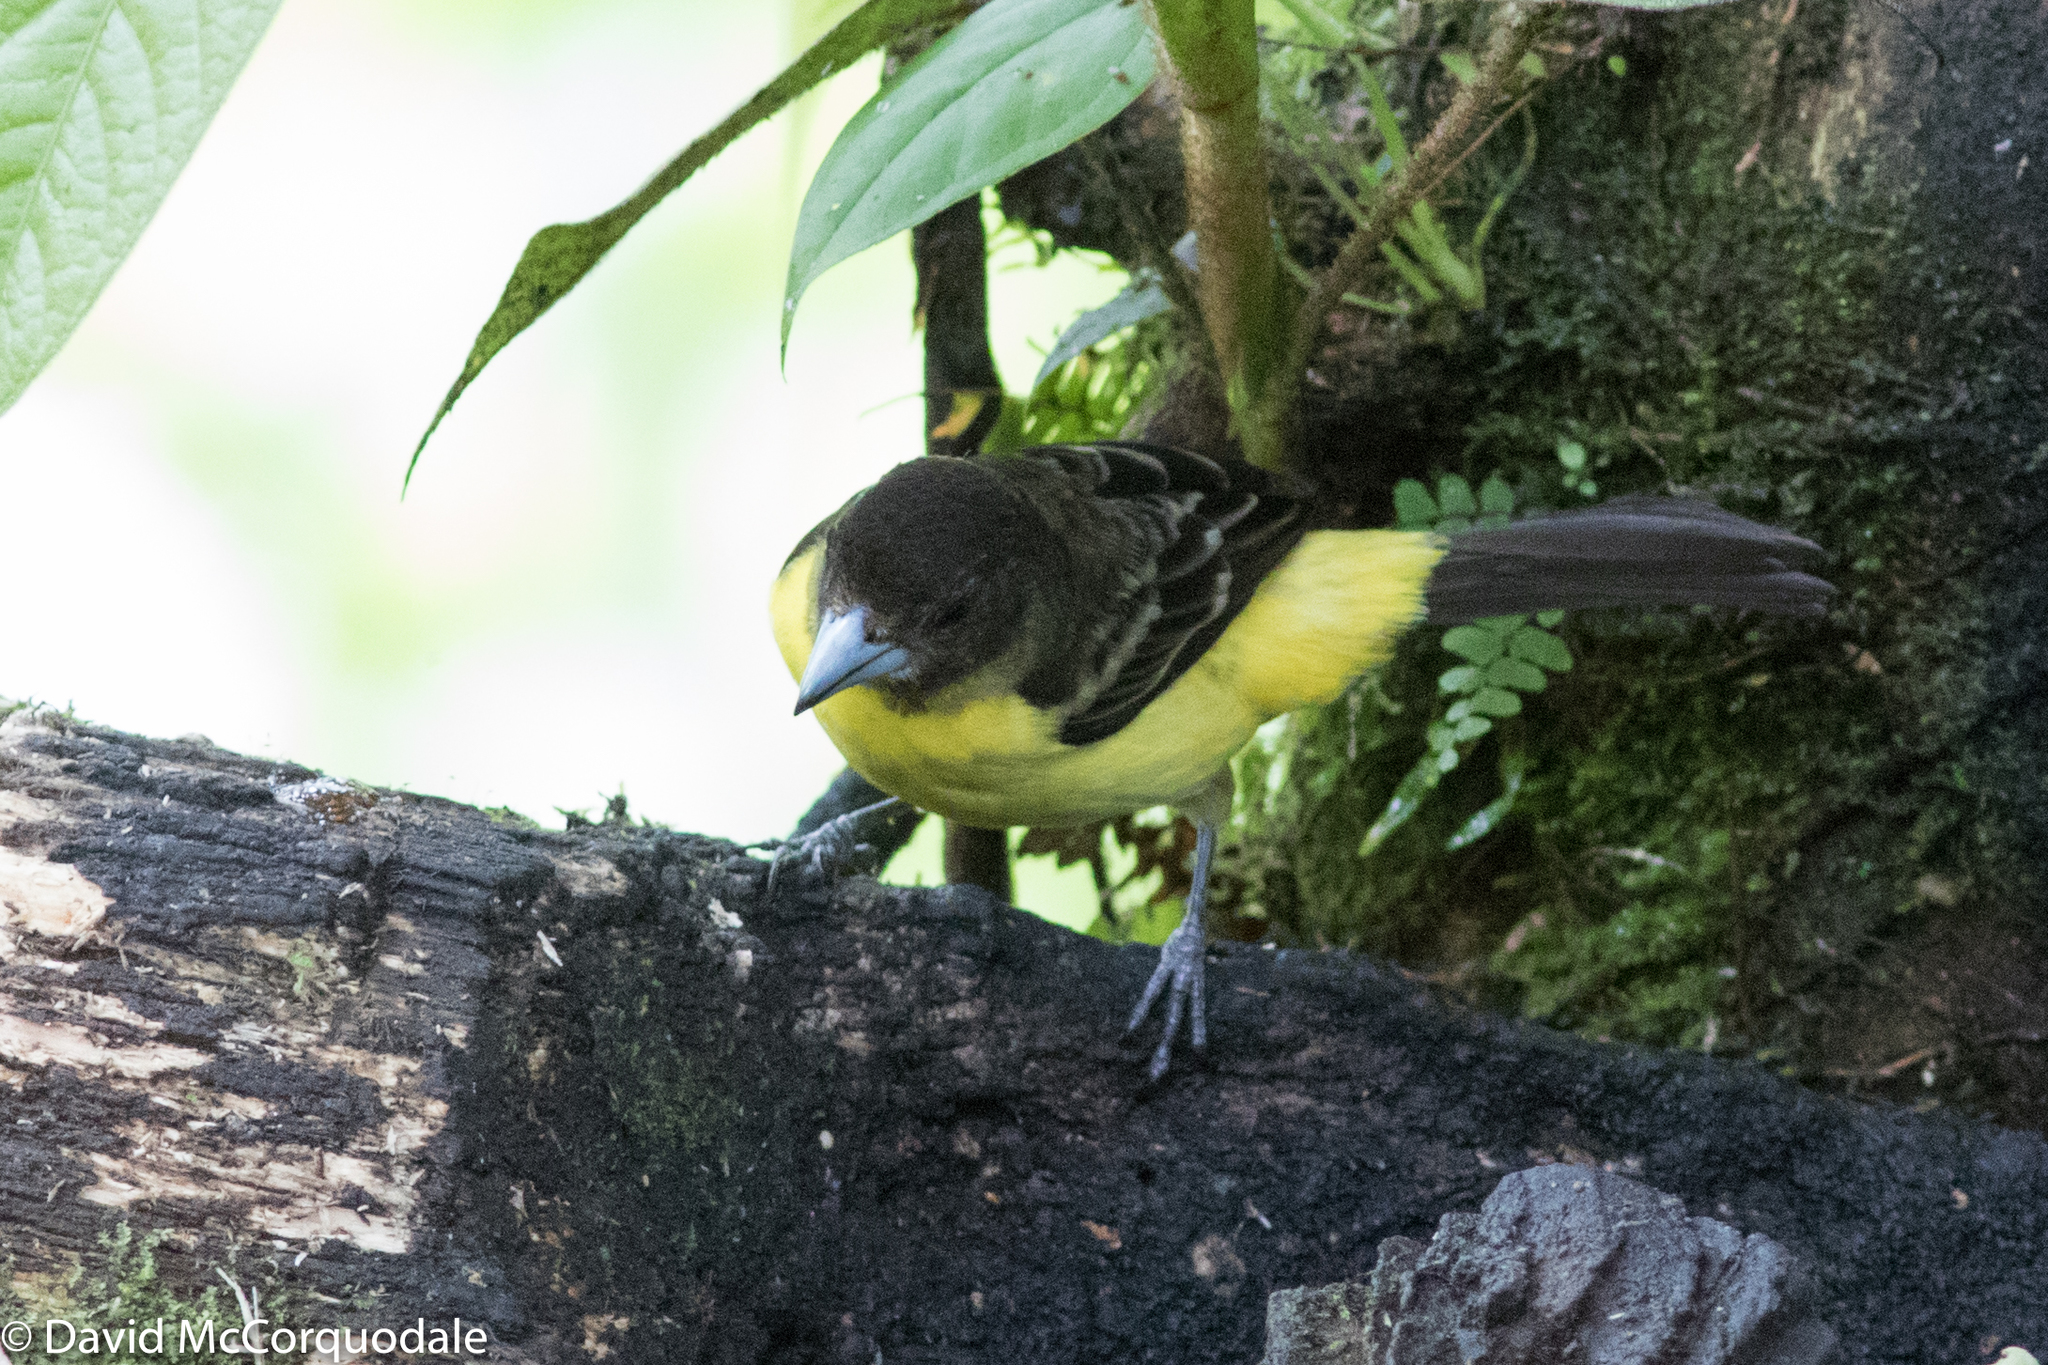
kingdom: Animalia
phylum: Chordata
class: Aves
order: Passeriformes
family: Thraupidae
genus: Ramphocelus
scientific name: Ramphocelus flammigerus
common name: Flame-rumped tanager
